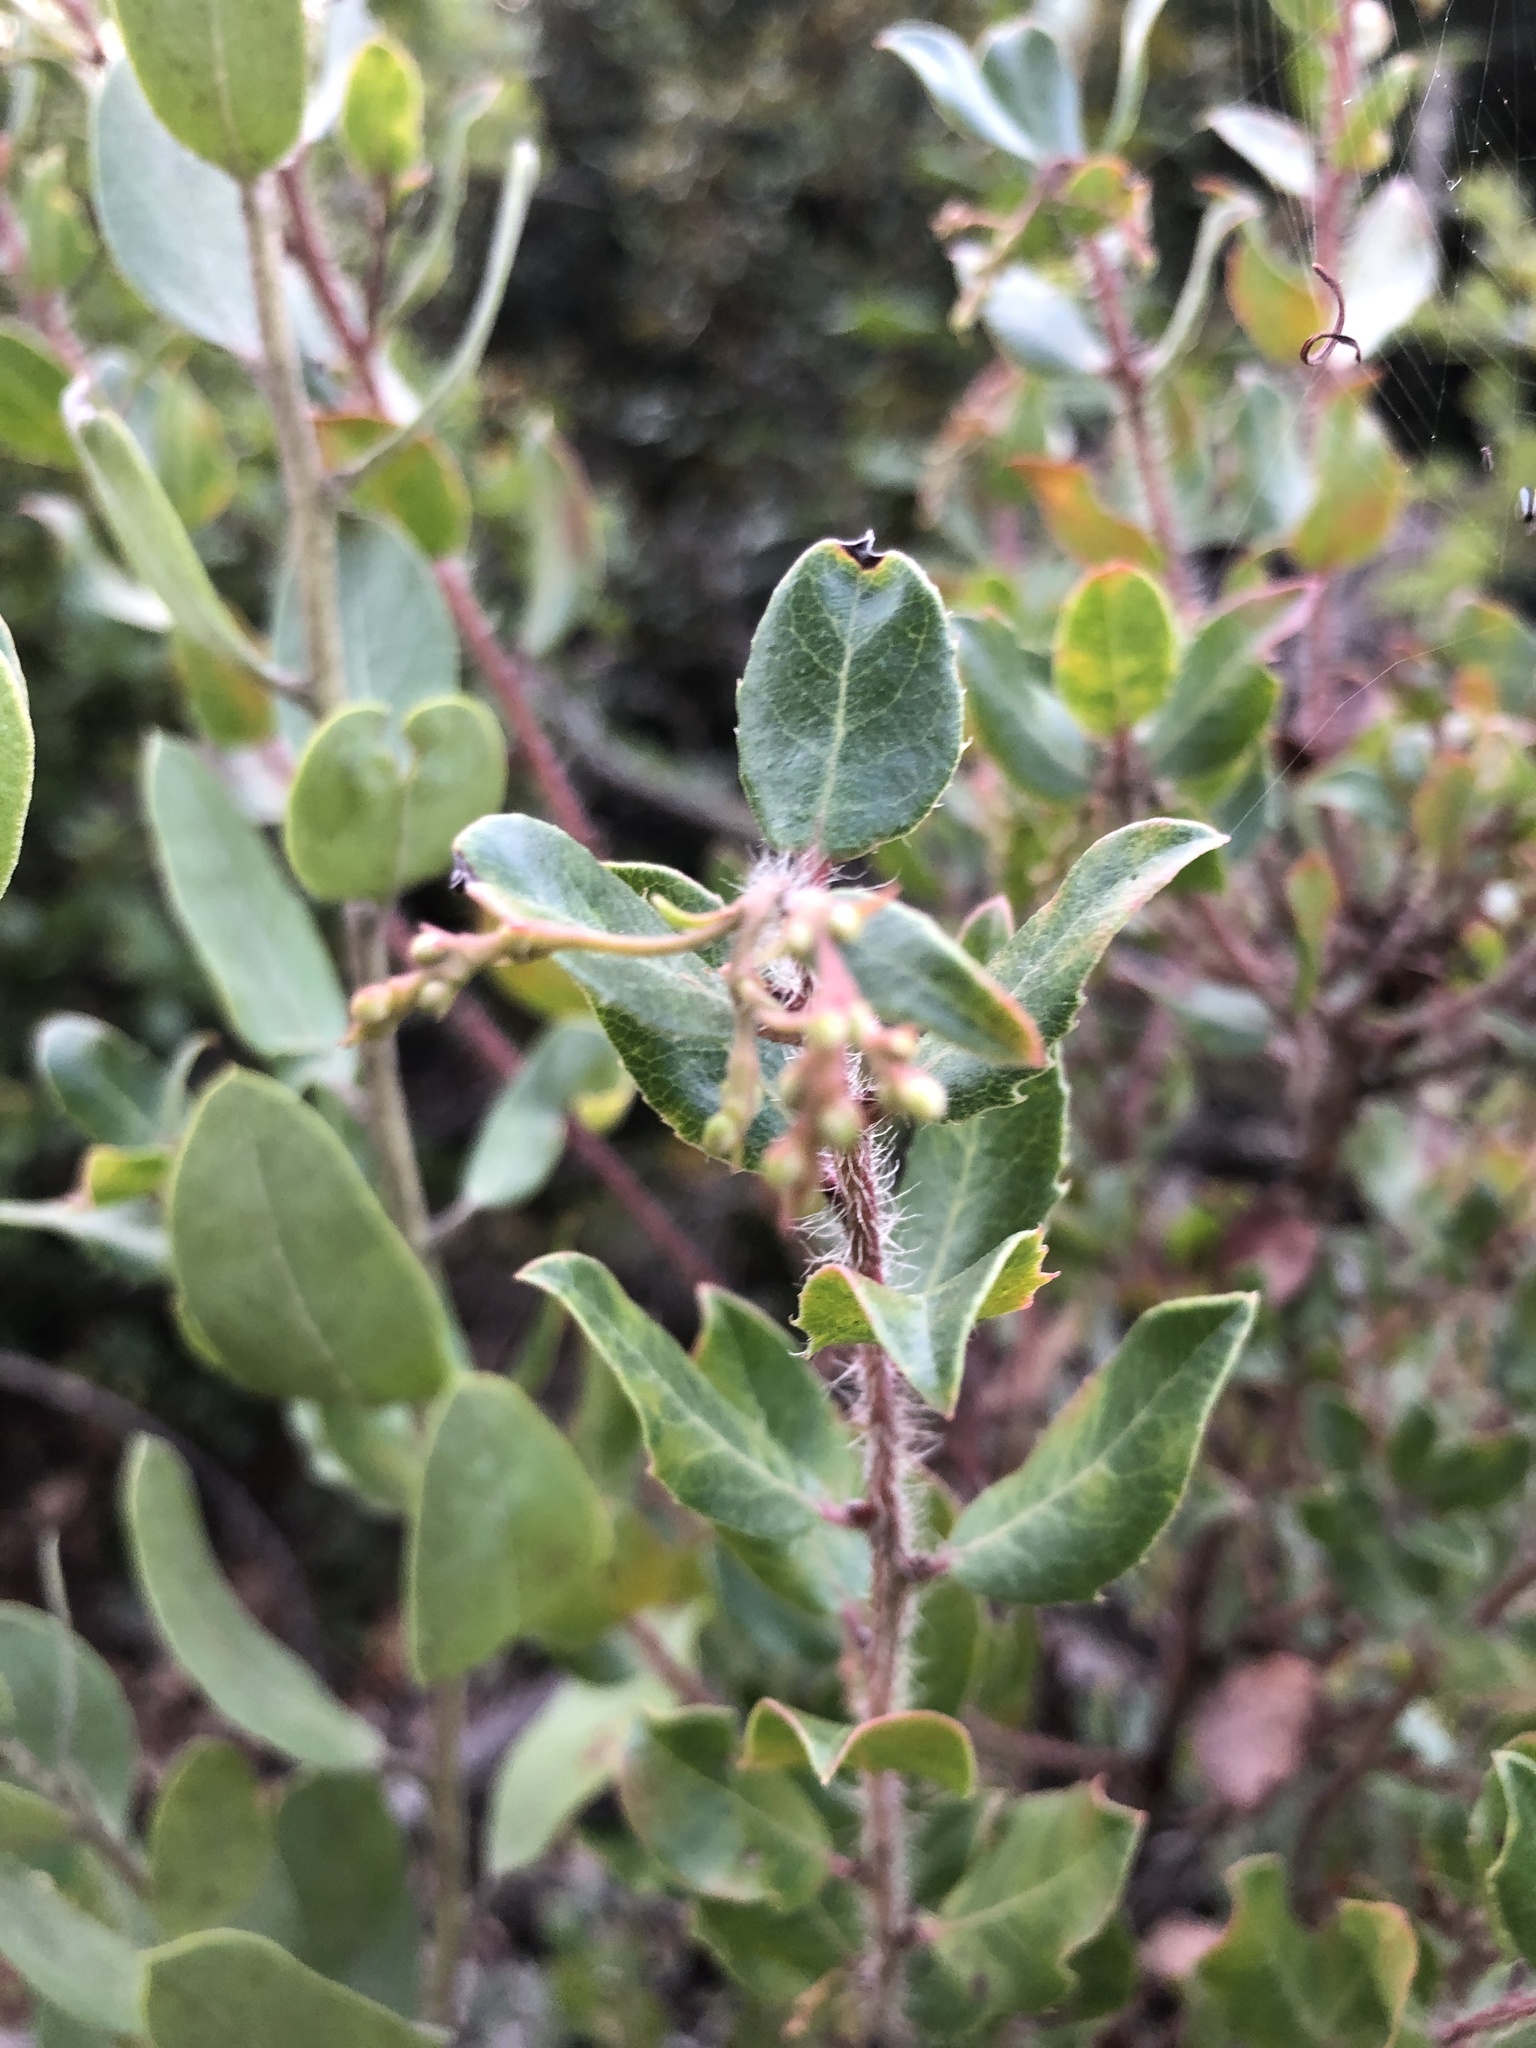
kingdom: Plantae
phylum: Tracheophyta
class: Magnoliopsida
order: Ericales
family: Ericaceae
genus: Arctostaphylos
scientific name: Arctostaphylos nummularia
